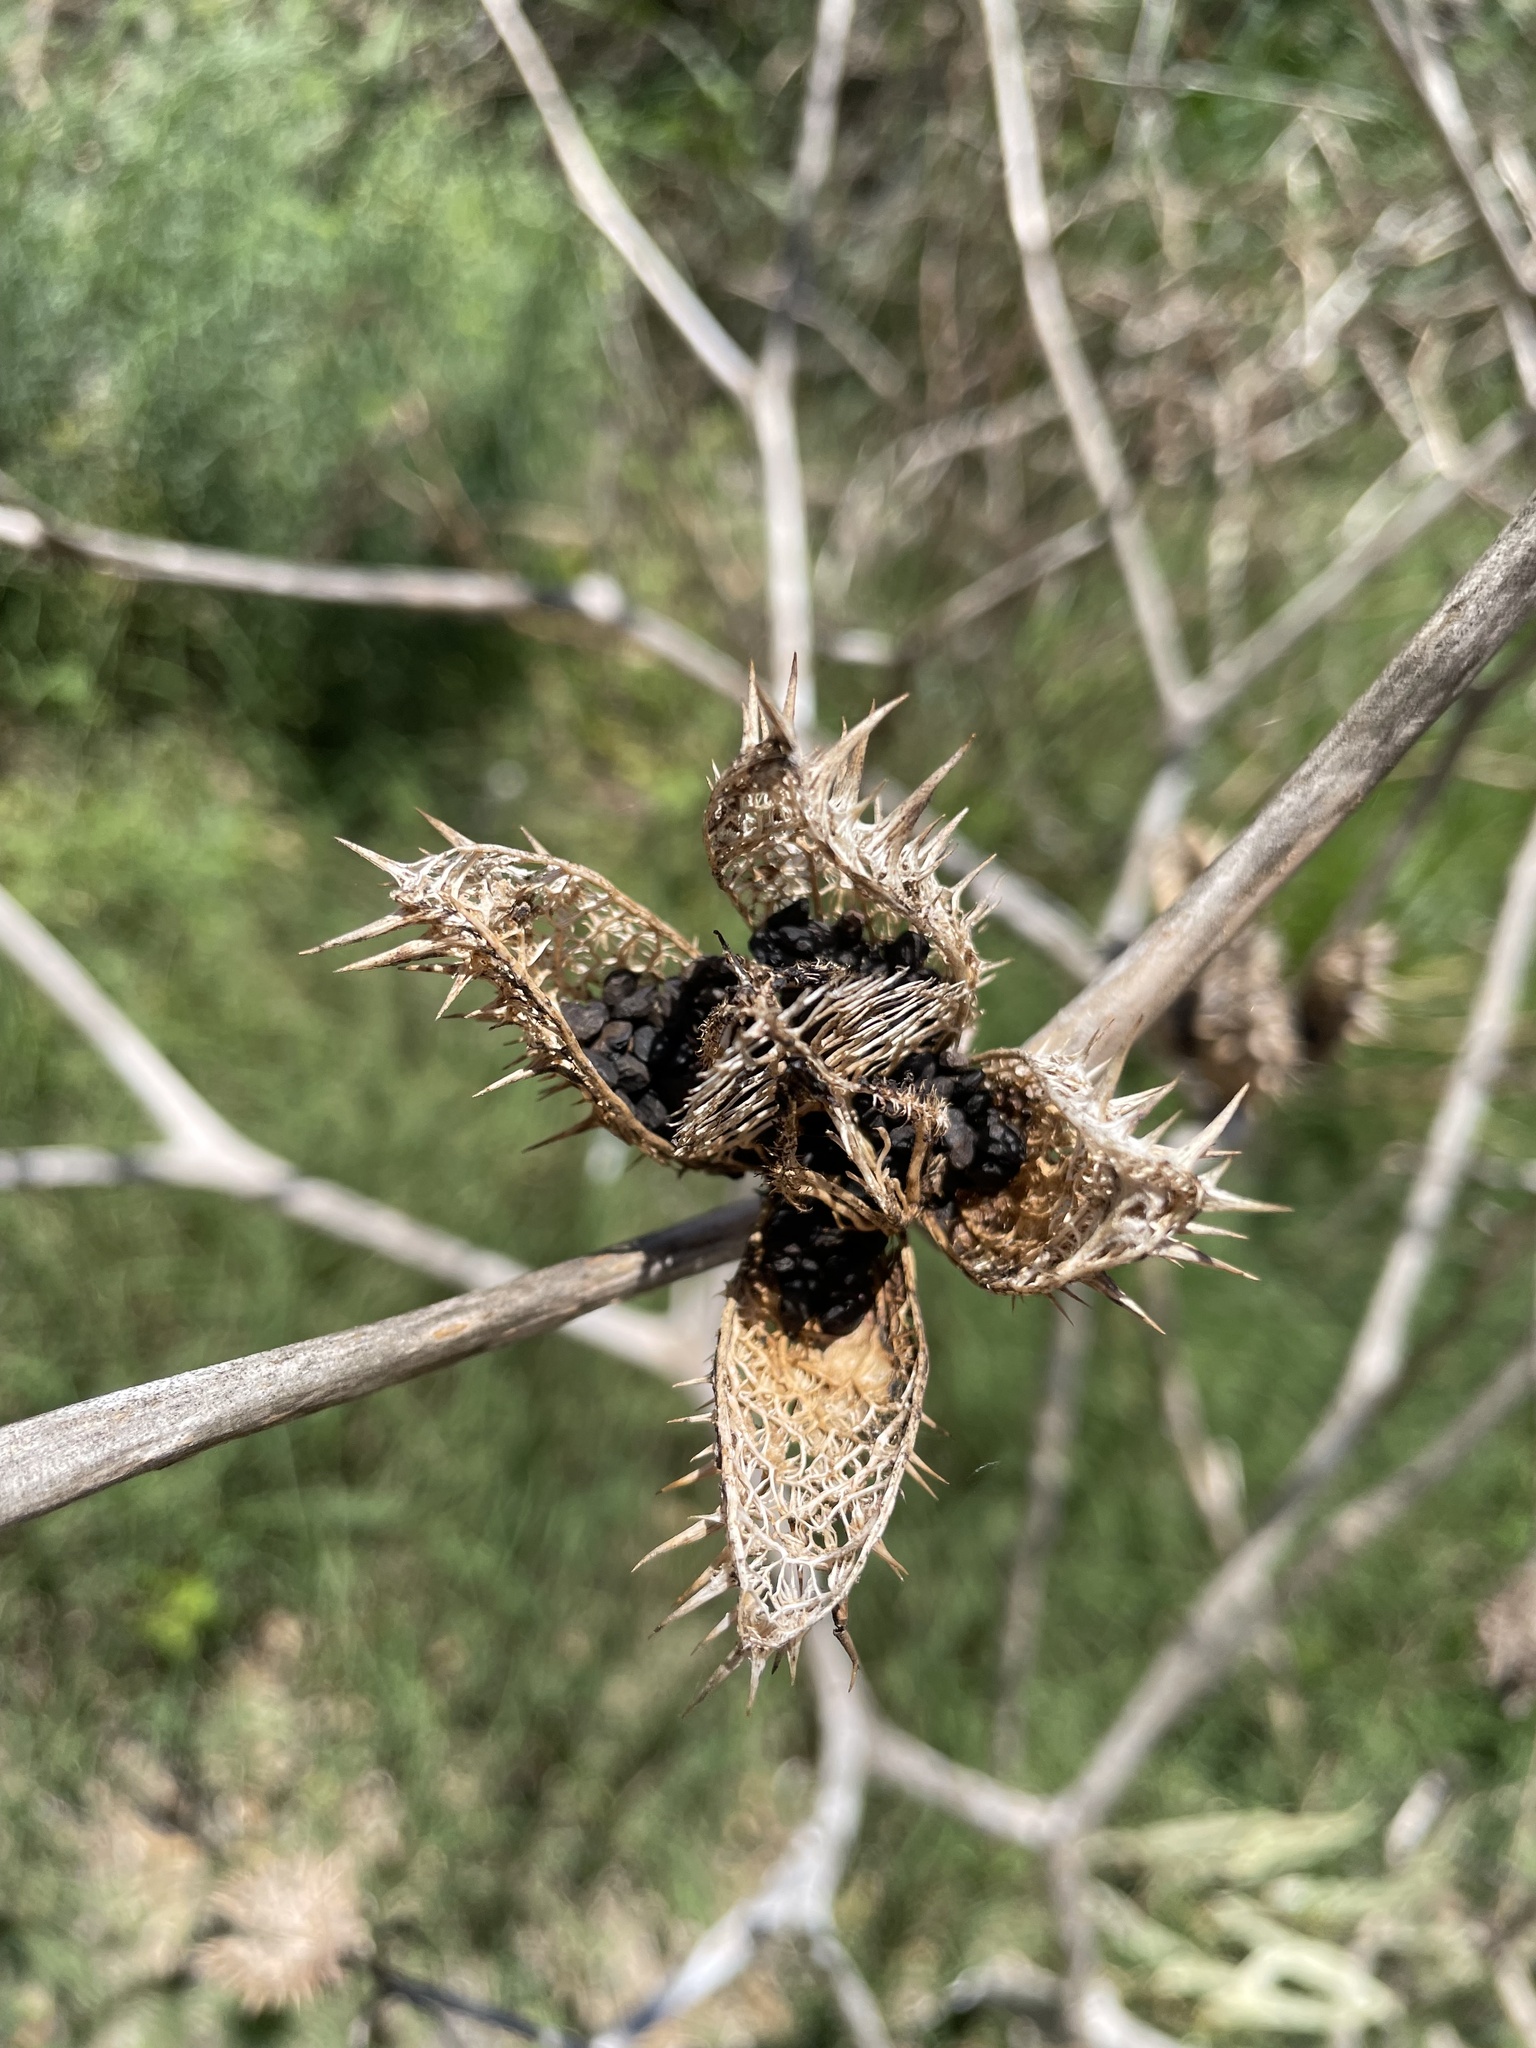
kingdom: Plantae
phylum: Tracheophyta
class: Magnoliopsida
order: Solanales
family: Solanaceae
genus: Datura
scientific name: Datura stramonium
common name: Thorn-apple
